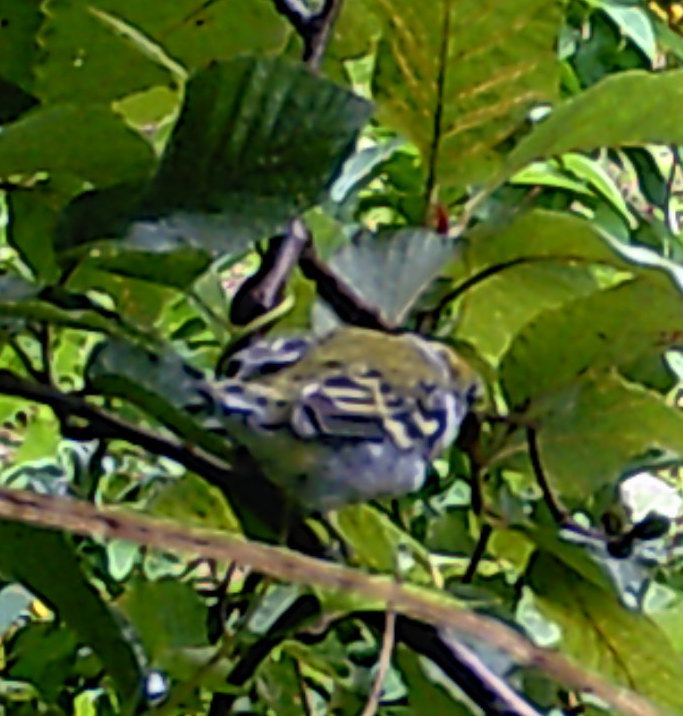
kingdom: Animalia
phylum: Chordata
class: Aves
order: Passeriformes
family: Parulidae
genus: Setophaga
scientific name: Setophaga pensylvanica
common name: Chestnut-sided warbler
